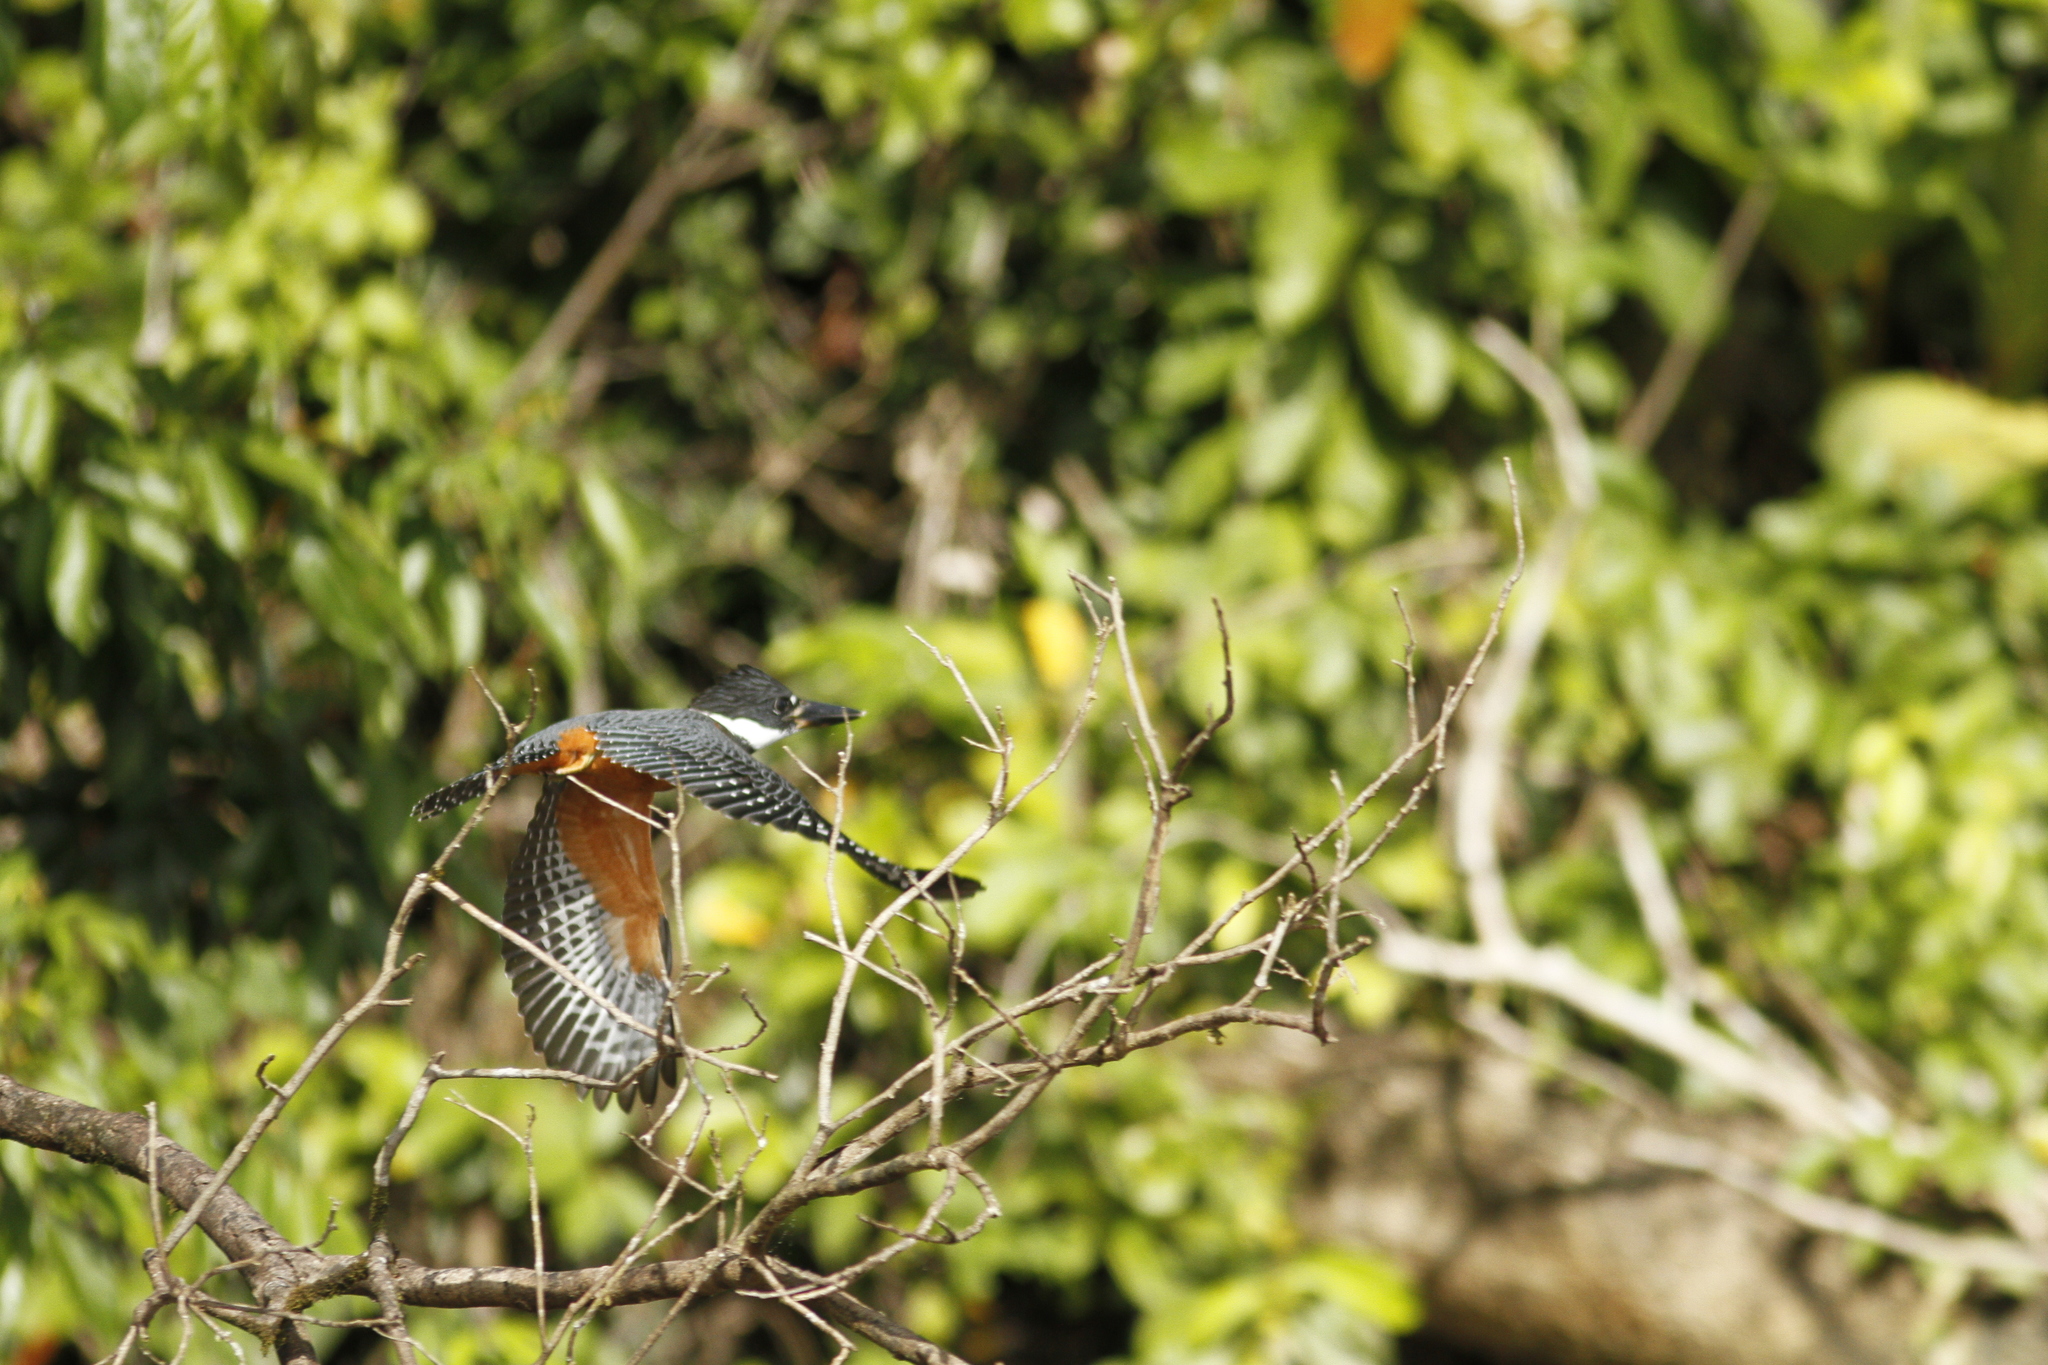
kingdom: Animalia
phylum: Chordata
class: Aves
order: Coraciiformes
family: Alcedinidae
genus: Megaceryle
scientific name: Megaceryle torquata
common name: Ringed kingfisher
